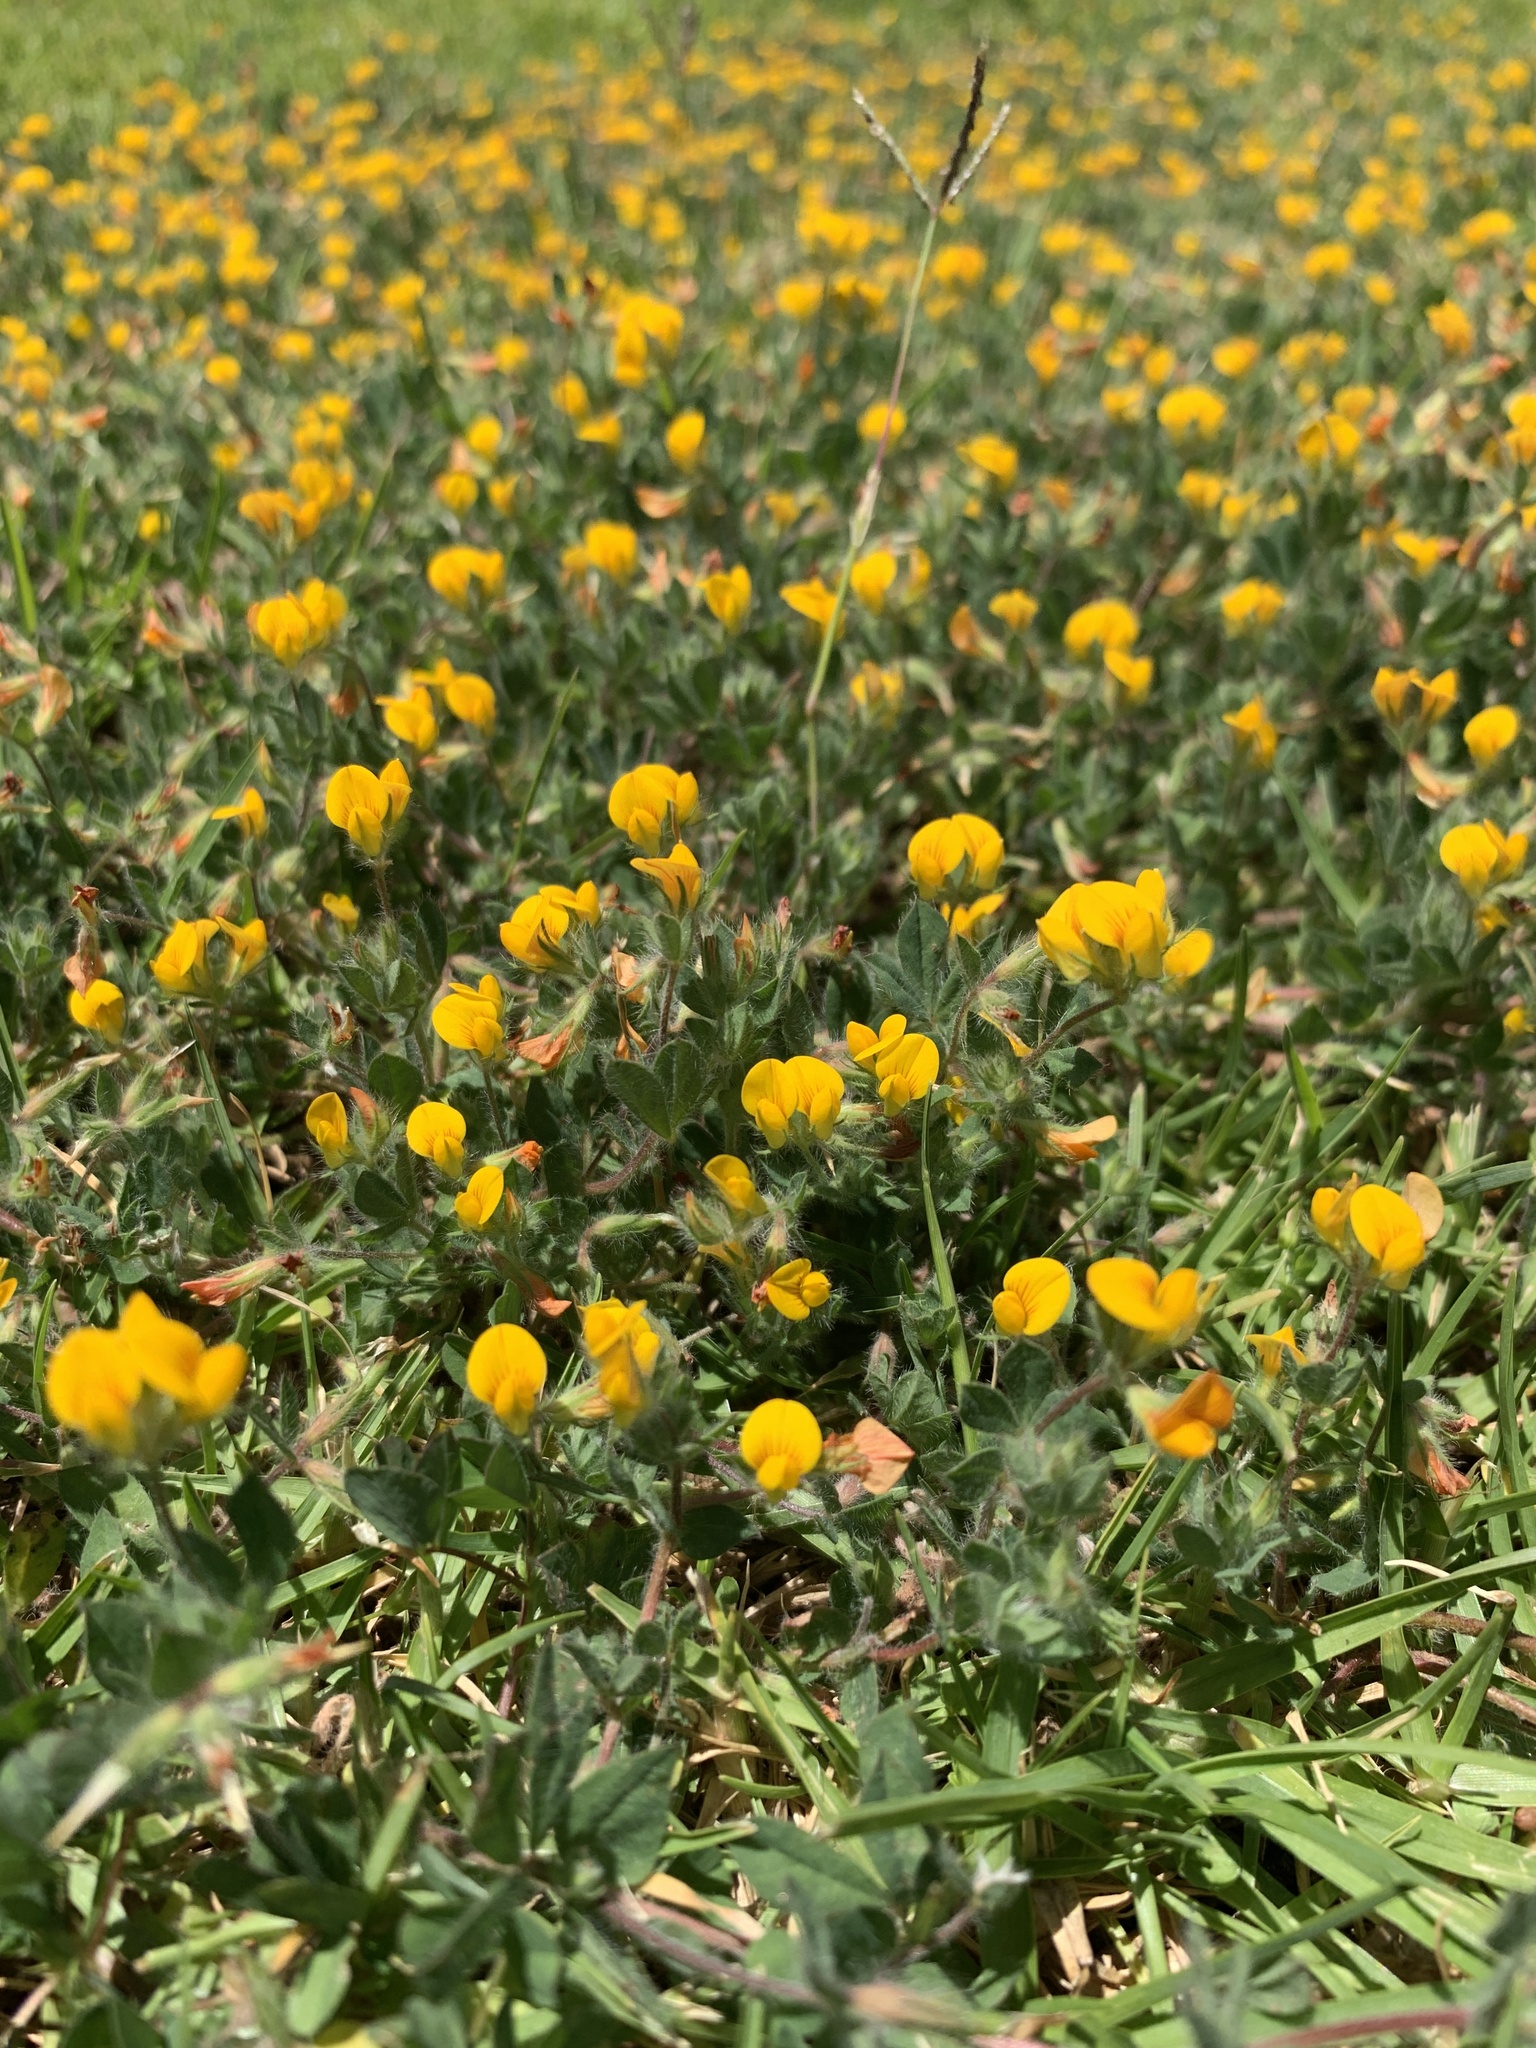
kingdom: Plantae
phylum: Tracheophyta
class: Magnoliopsida
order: Fabales
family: Fabaceae
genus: Lotus
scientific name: Lotus subbiflorus
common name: Hairy bird's-foot trefoil
